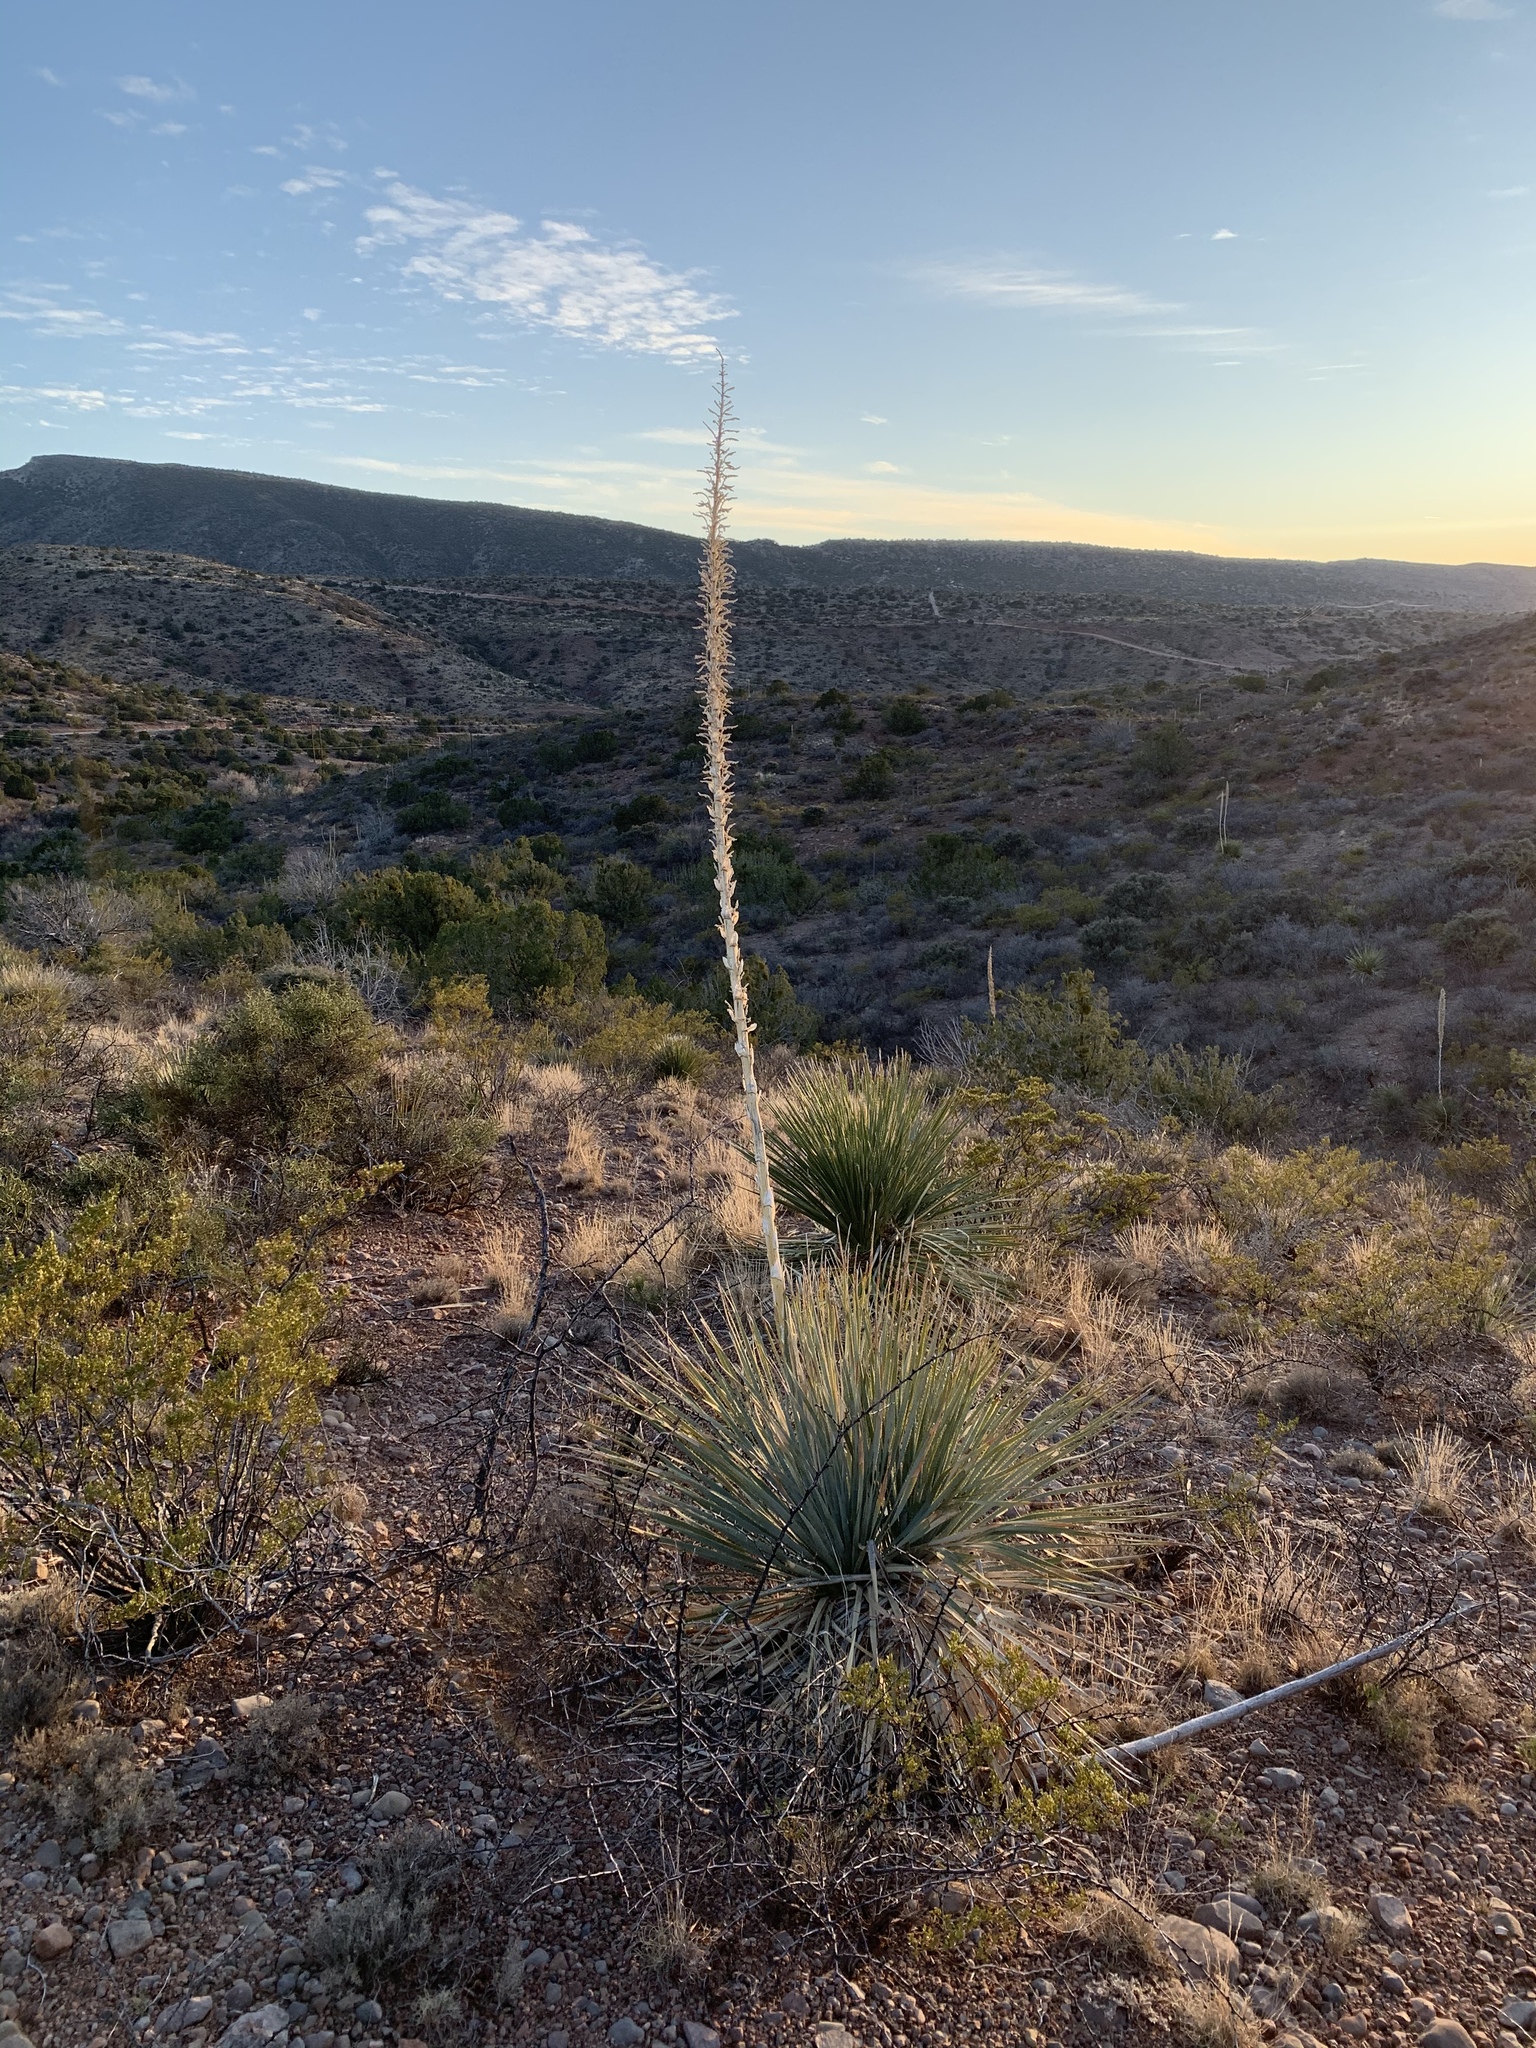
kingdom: Plantae
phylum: Tracheophyta
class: Liliopsida
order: Asparagales
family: Asparagaceae
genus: Dasylirion
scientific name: Dasylirion wheeleri
